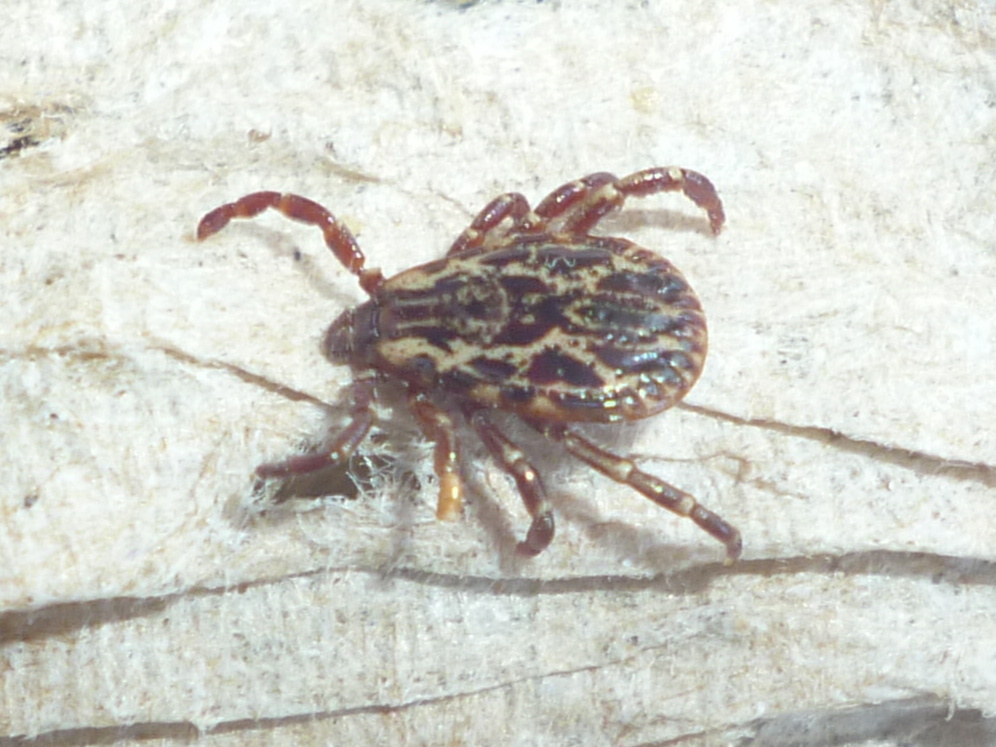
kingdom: Animalia
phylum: Arthropoda
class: Arachnida
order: Ixodida
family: Ixodidae
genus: Dermacentor
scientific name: Dermacentor variabilis
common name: American dog tick
